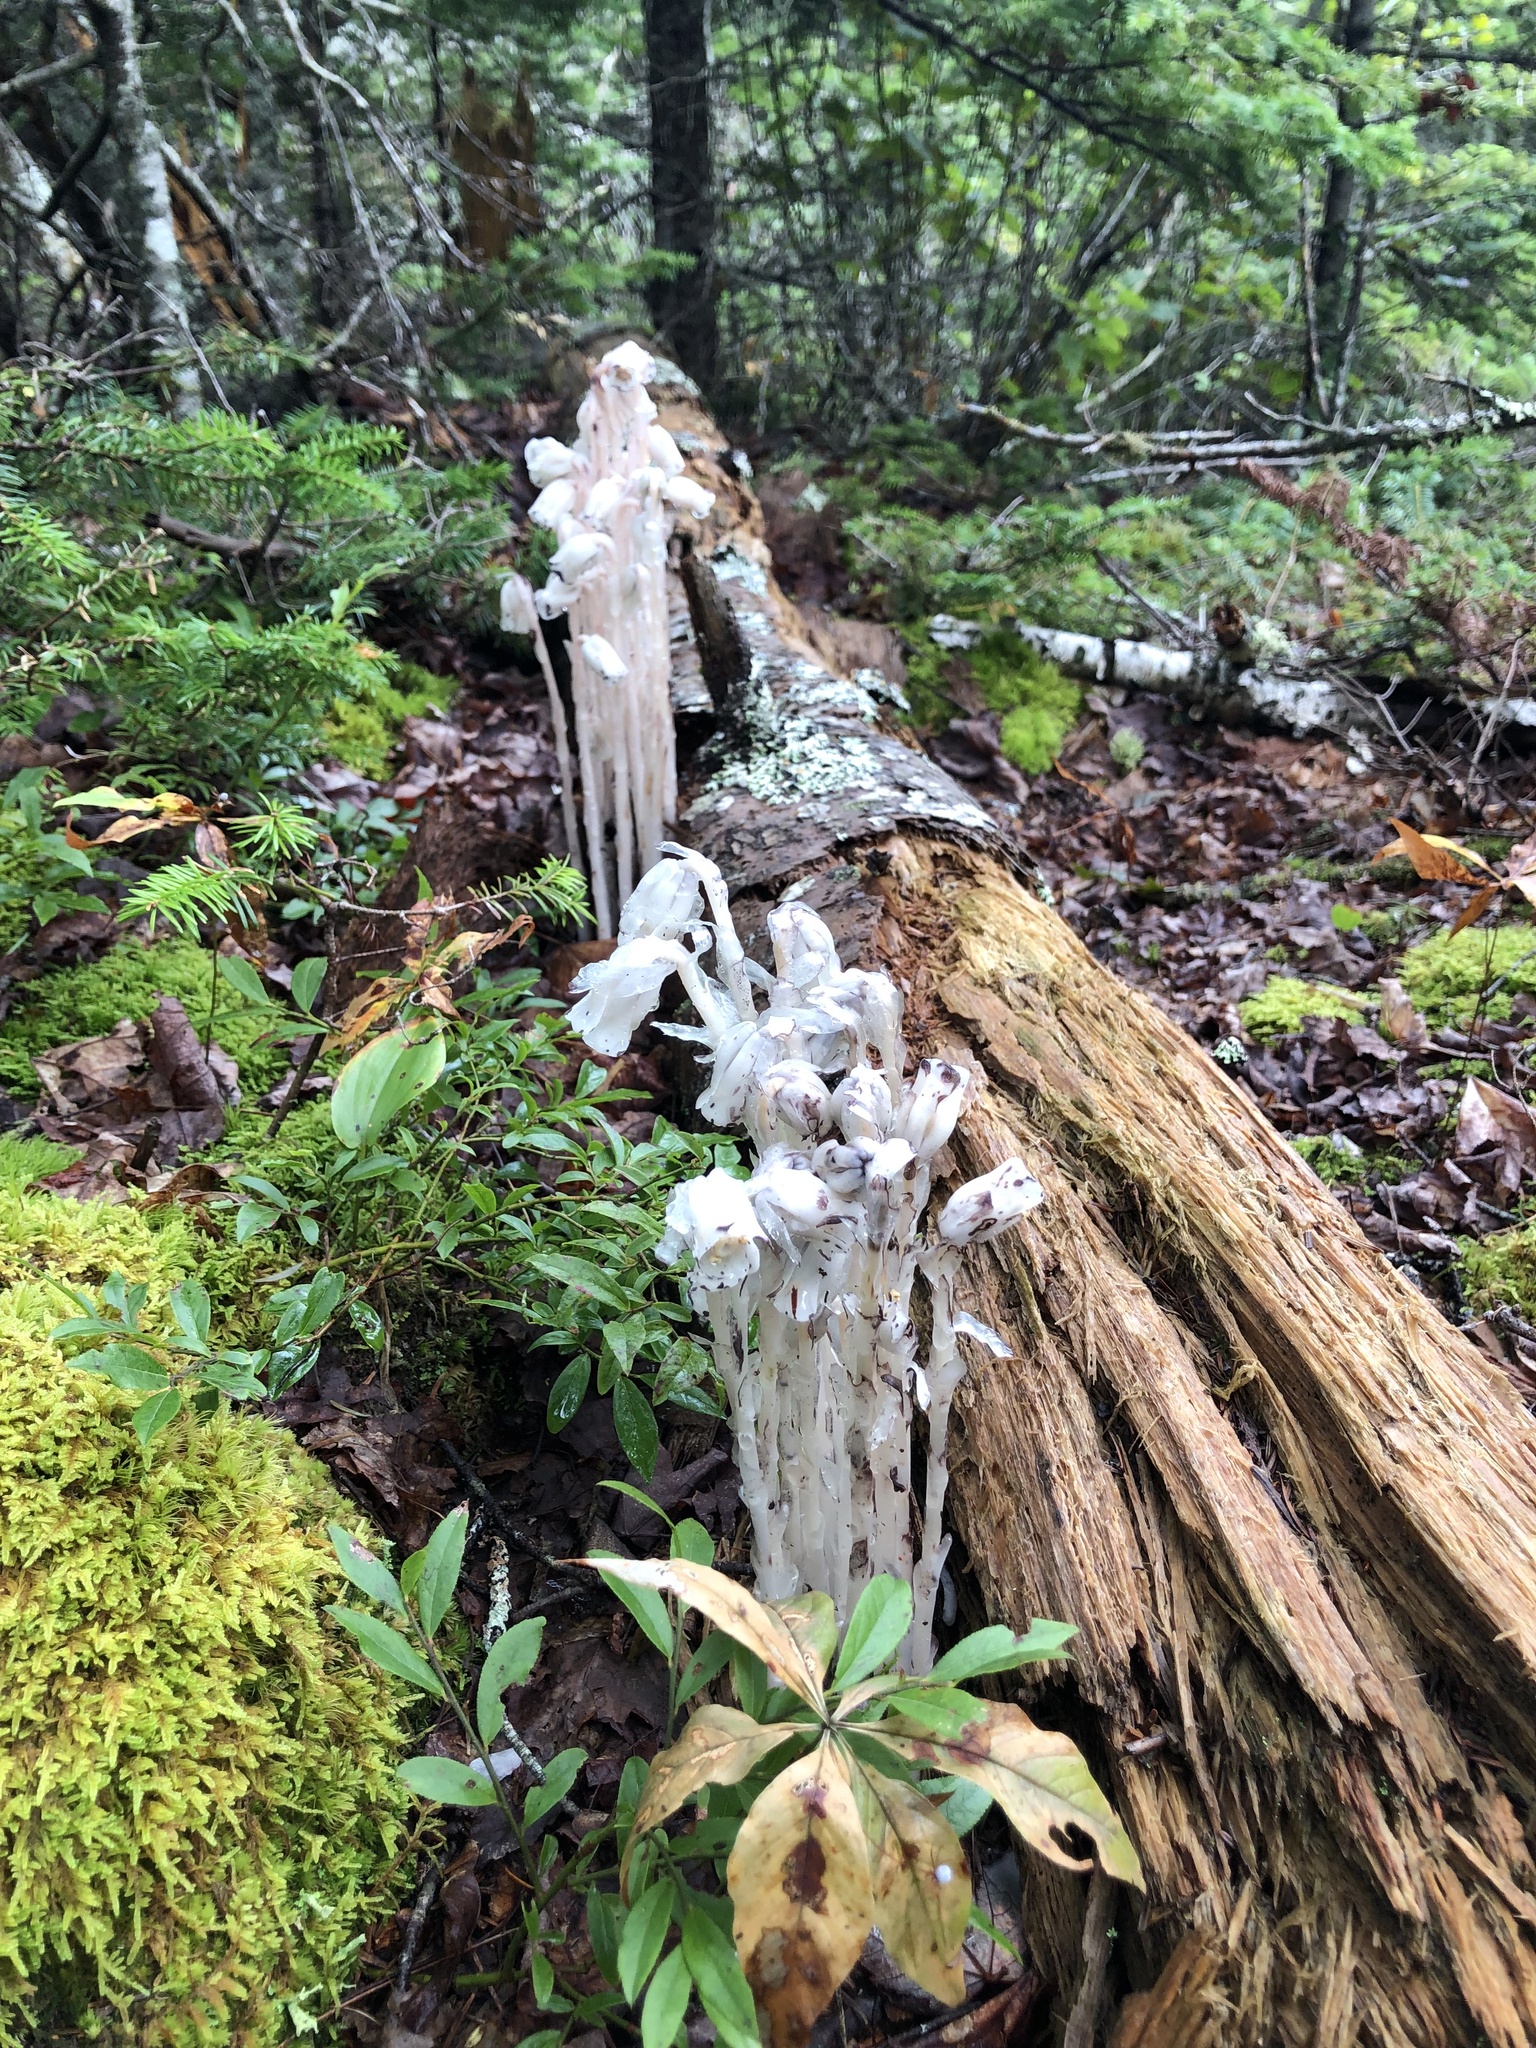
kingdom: Plantae
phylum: Tracheophyta
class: Magnoliopsida
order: Ericales
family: Ericaceae
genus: Monotropa
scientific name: Monotropa uniflora
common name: Convulsion root
